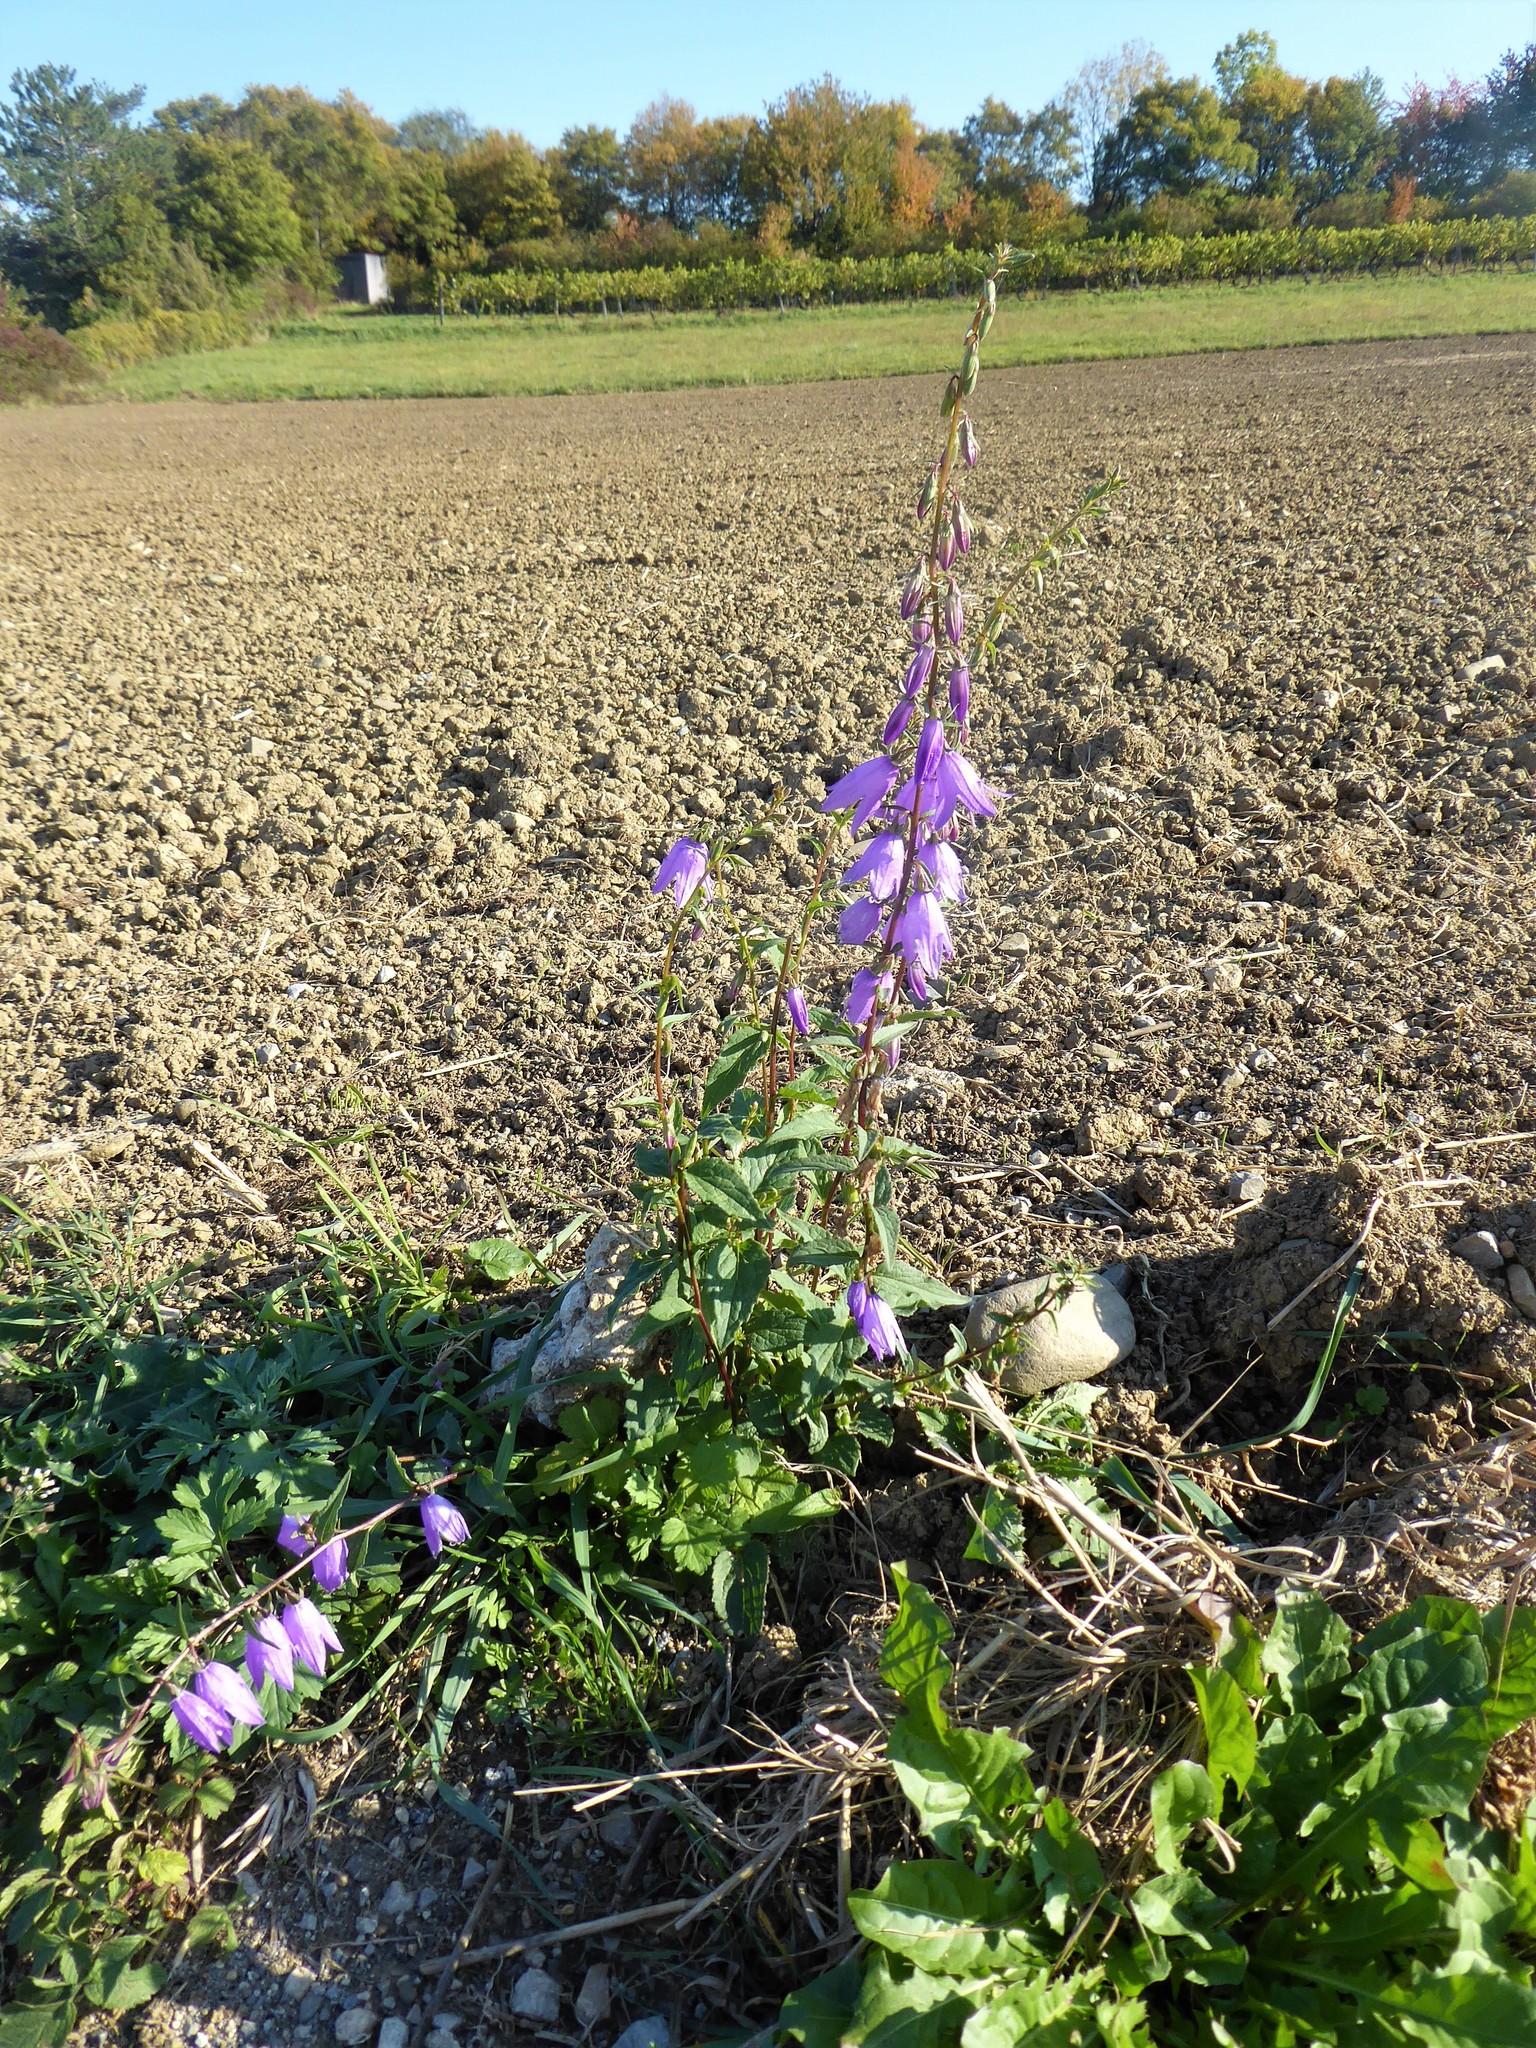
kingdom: Plantae
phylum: Tracheophyta
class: Magnoliopsida
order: Asterales
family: Campanulaceae
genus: Campanula
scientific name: Campanula rapunculoides
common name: Creeping bellflower
